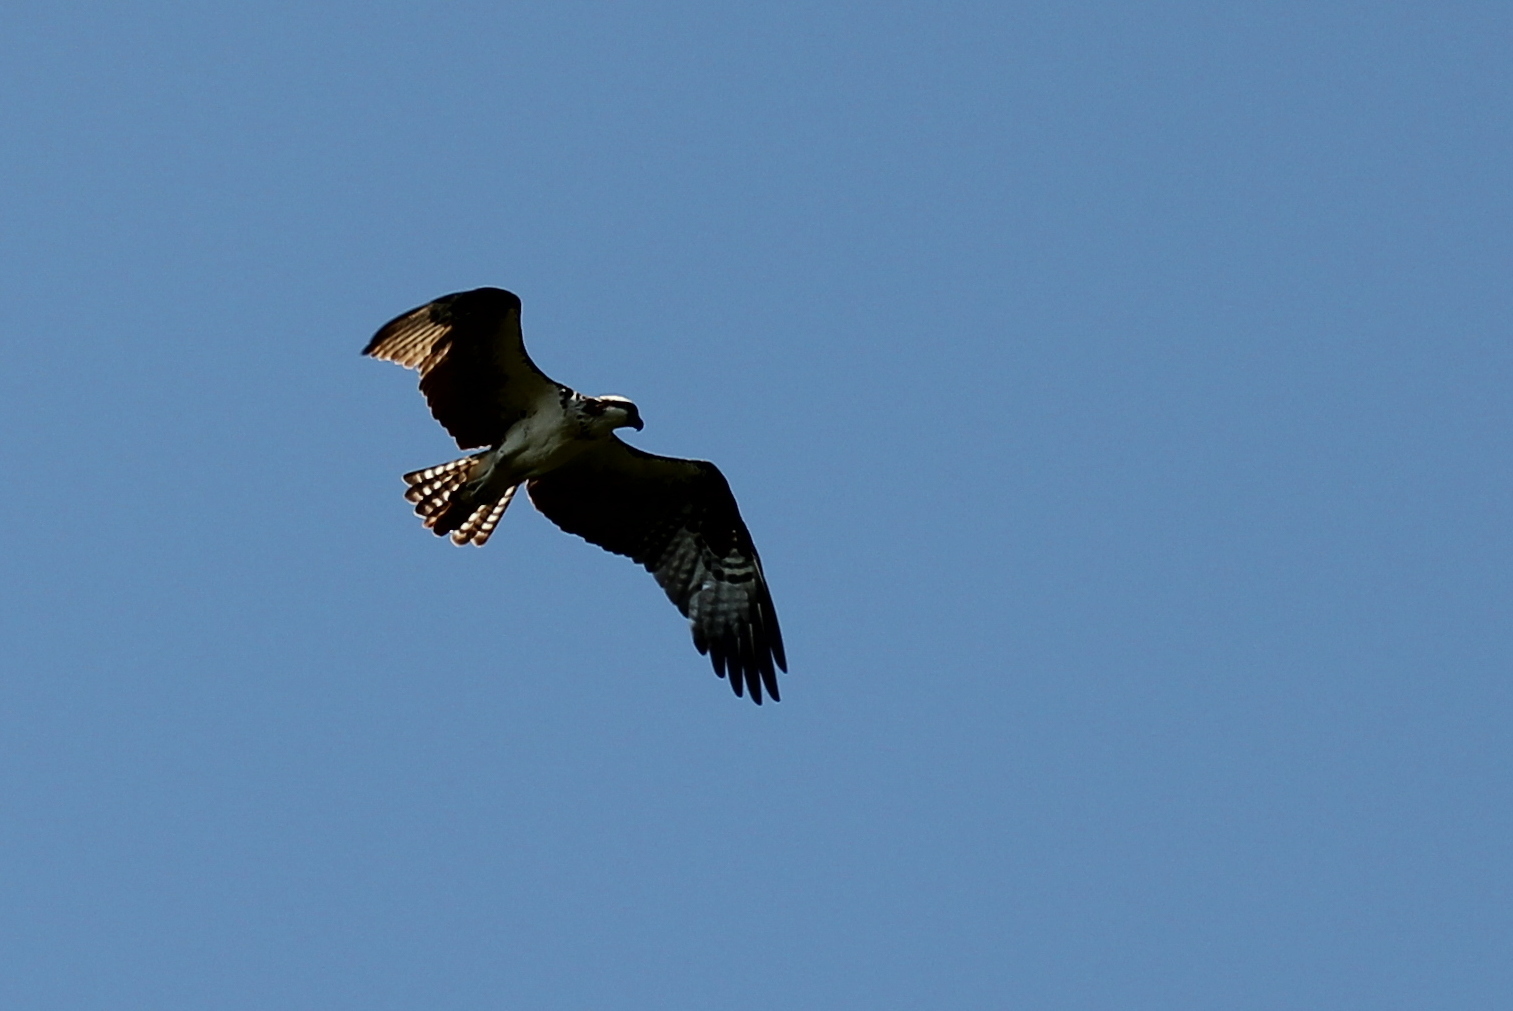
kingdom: Animalia
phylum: Chordata
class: Aves
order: Accipitriformes
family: Pandionidae
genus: Pandion
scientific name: Pandion haliaetus
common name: Osprey
